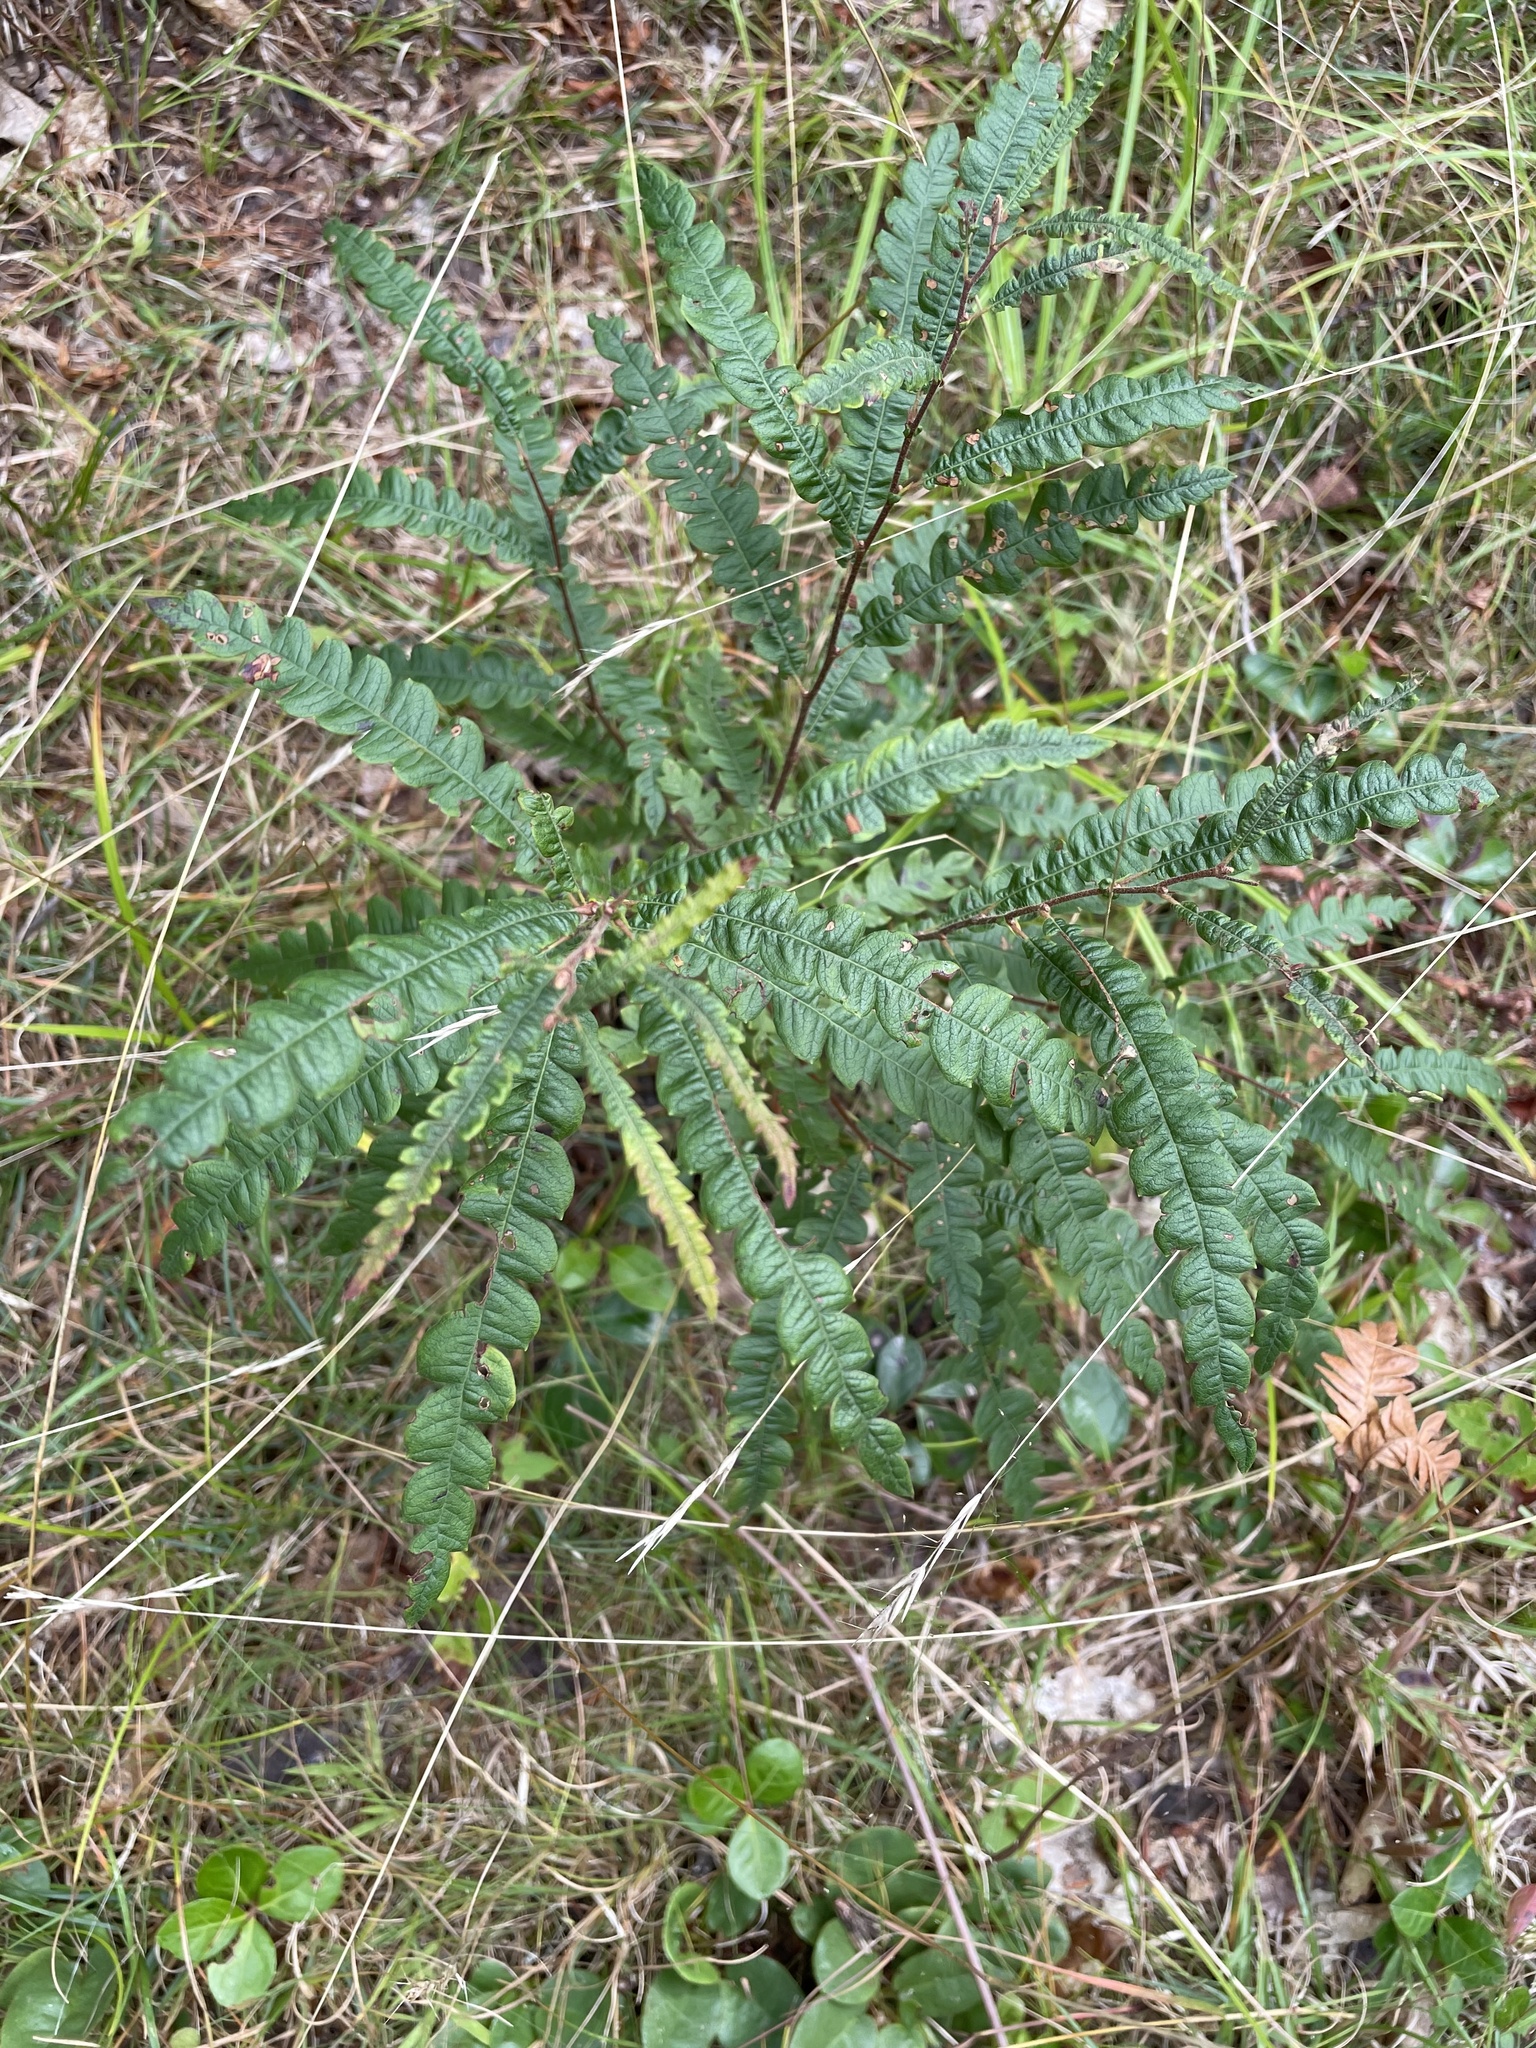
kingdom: Plantae
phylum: Tracheophyta
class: Magnoliopsida
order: Fagales
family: Myricaceae
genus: Comptonia
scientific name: Comptonia peregrina
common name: Sweet-fern
